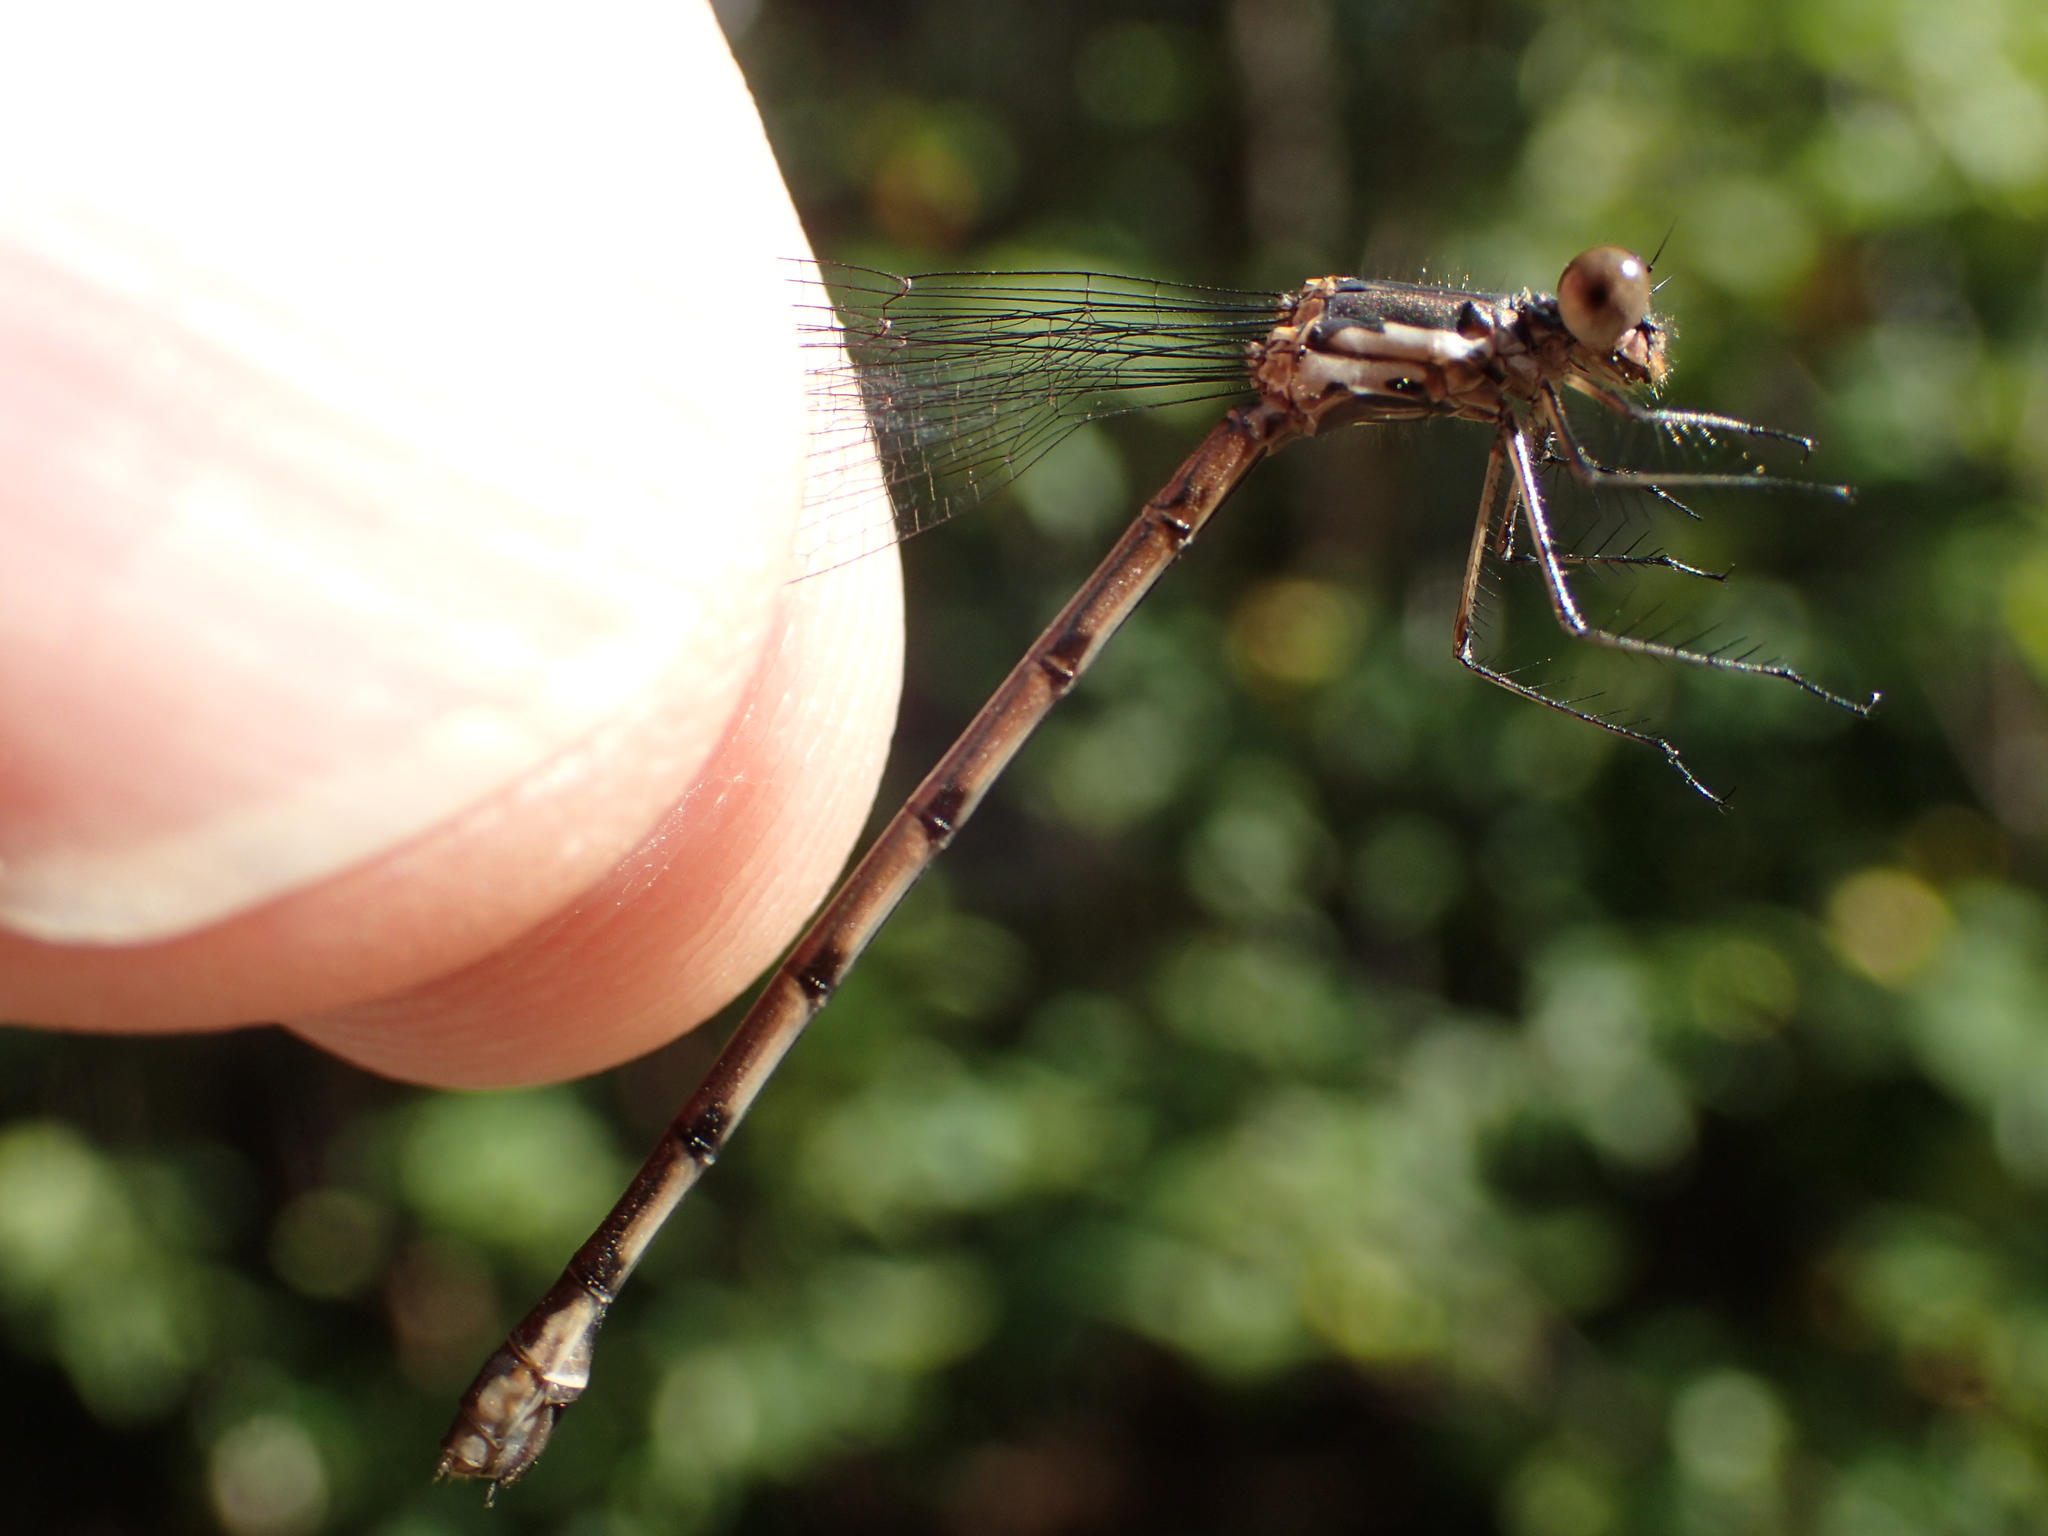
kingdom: Animalia
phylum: Arthropoda
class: Insecta
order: Odonata
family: Lestidae
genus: Lestes
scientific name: Lestes congener
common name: Spotted spreadwing
